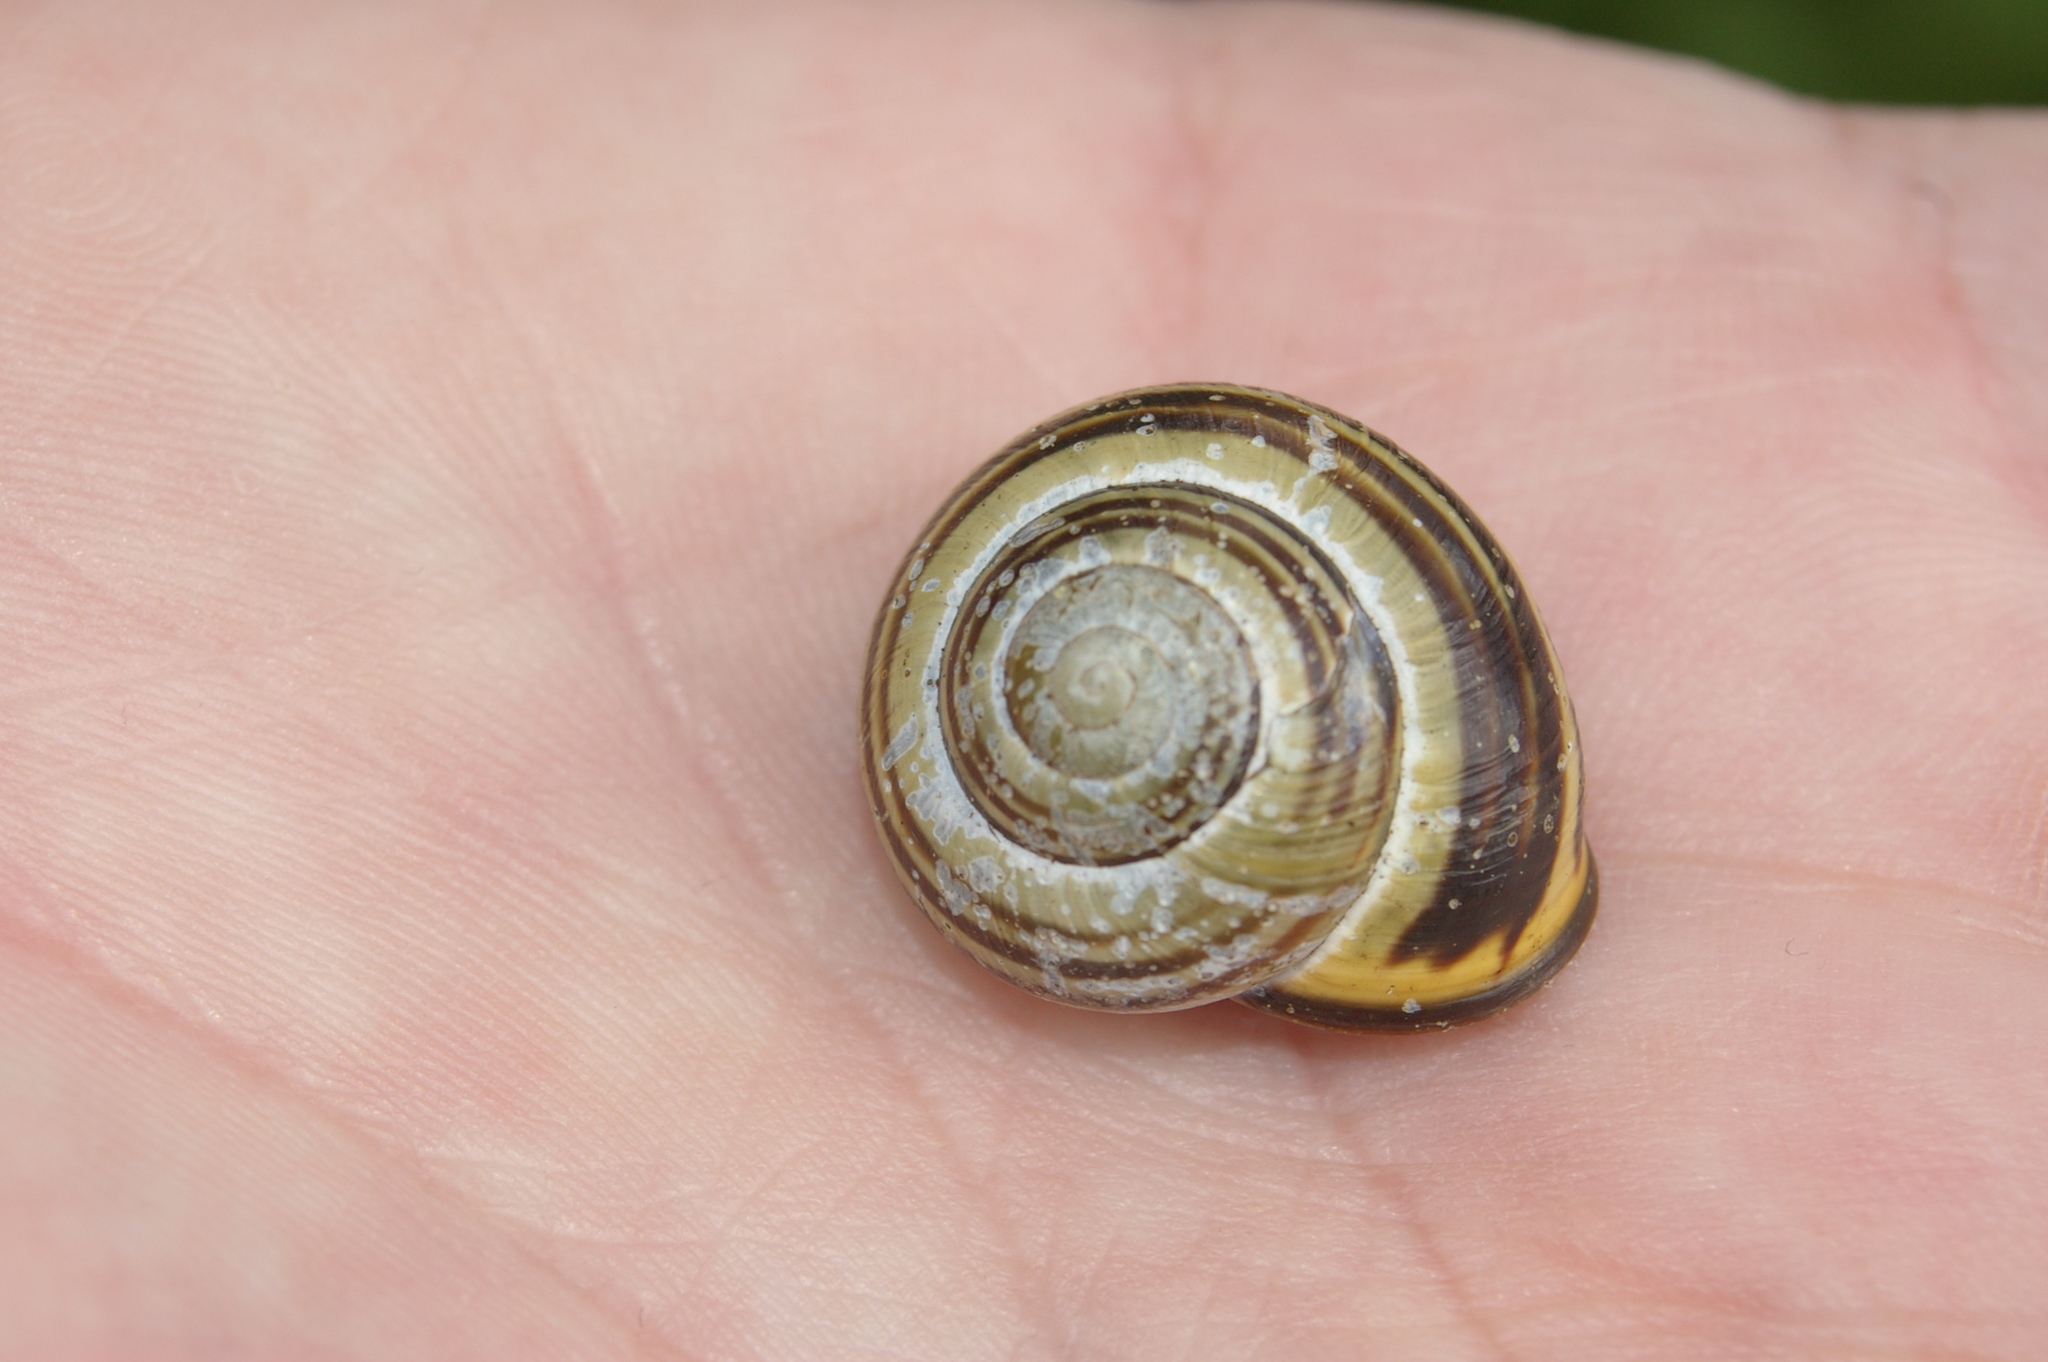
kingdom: Animalia
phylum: Mollusca
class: Gastropoda
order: Stylommatophora
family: Helicidae
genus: Cepaea
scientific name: Cepaea nemoralis
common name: Grovesnail
